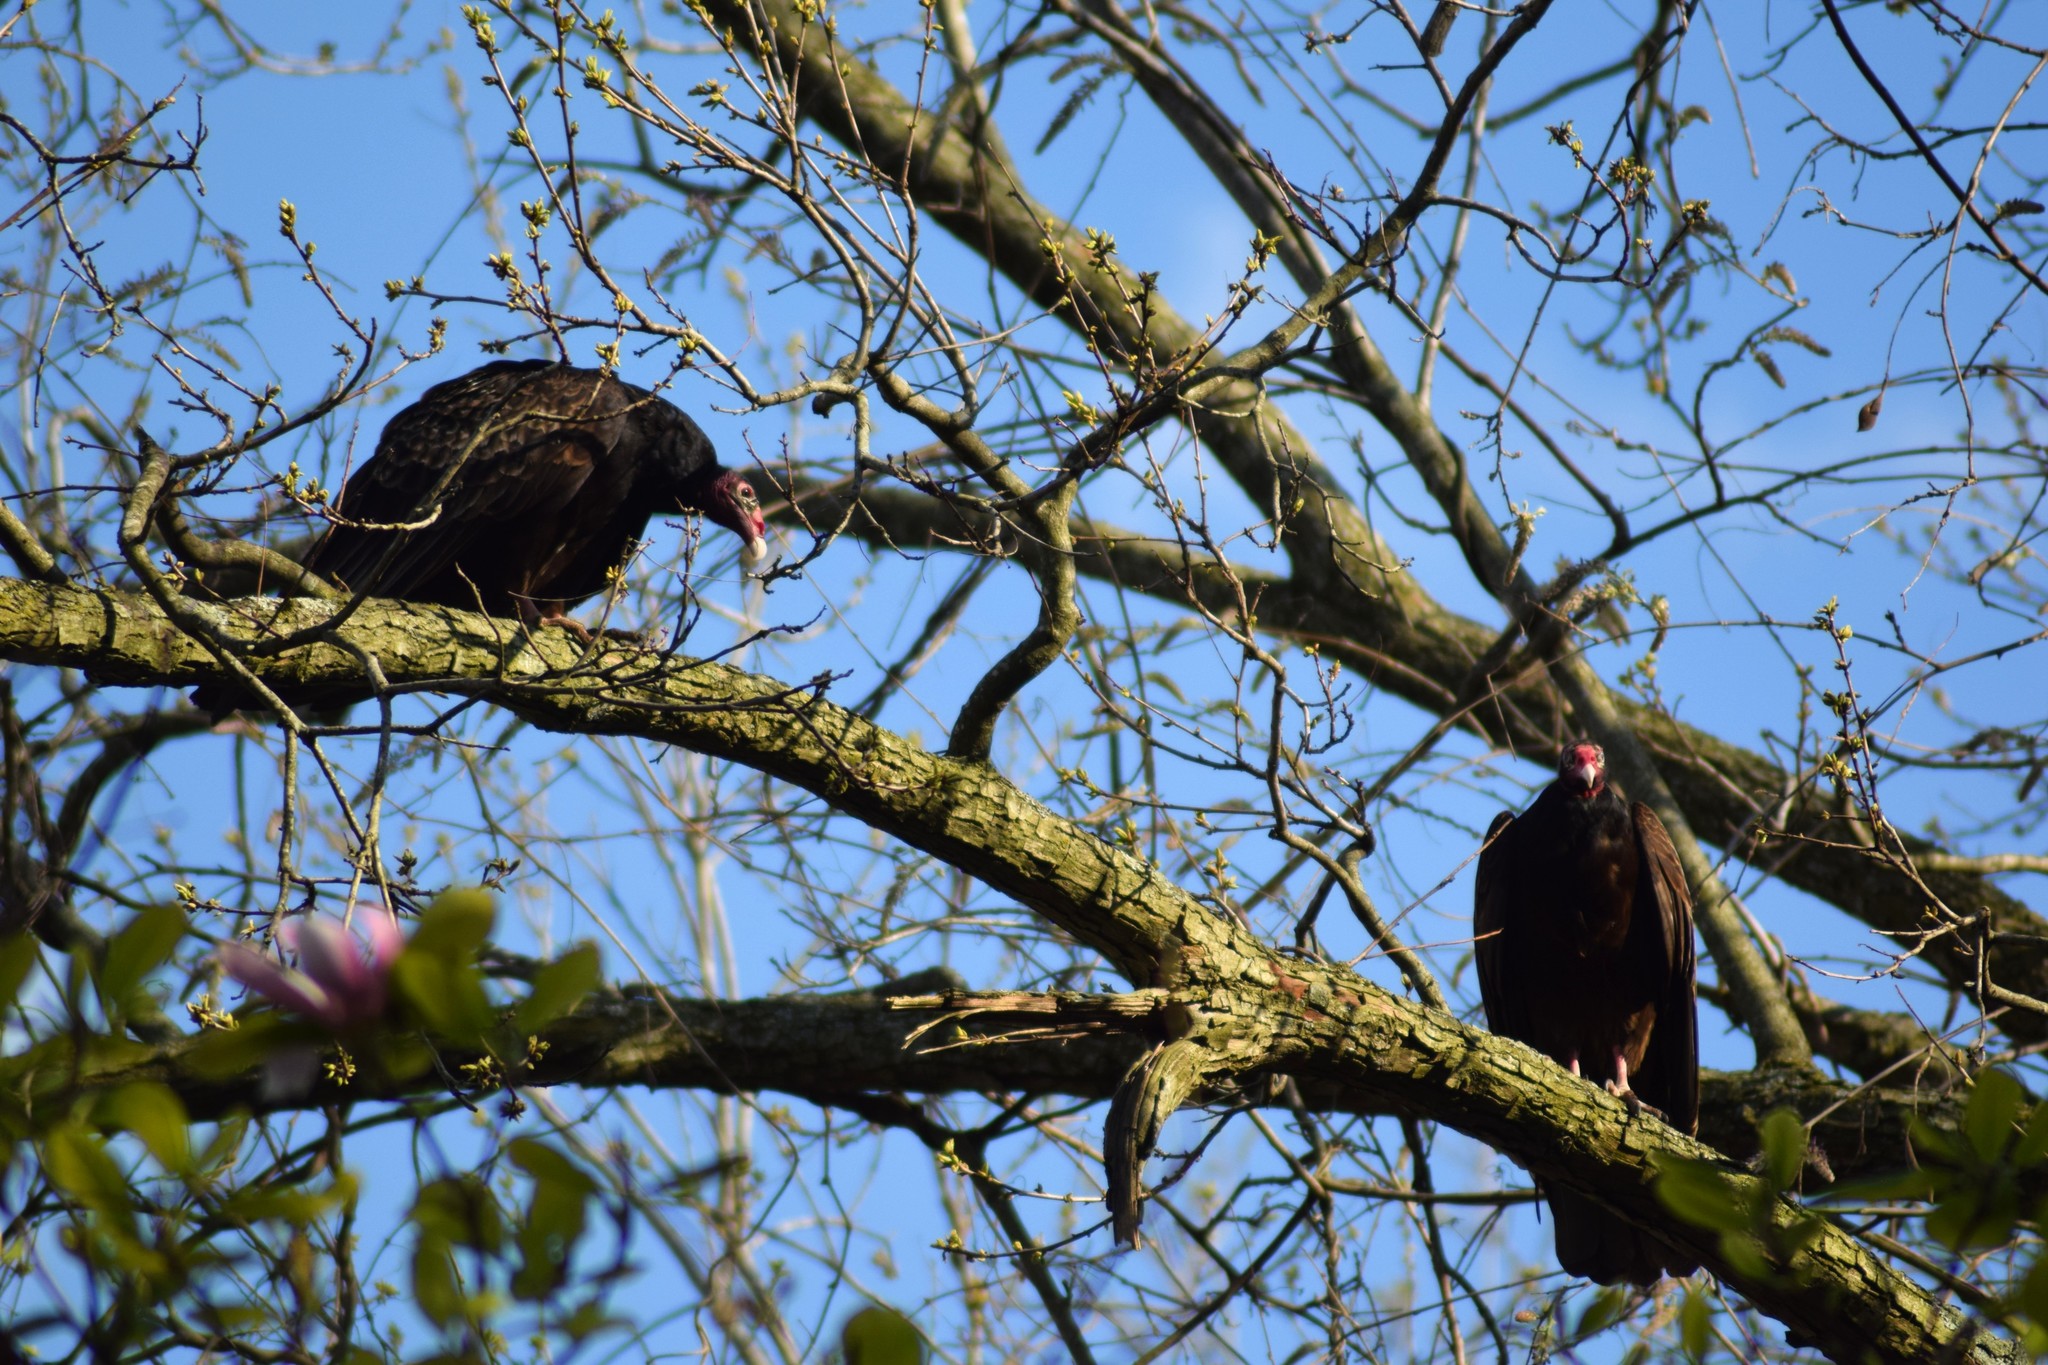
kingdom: Animalia
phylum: Chordata
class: Aves
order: Accipitriformes
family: Cathartidae
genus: Cathartes
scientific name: Cathartes aura
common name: Turkey vulture
